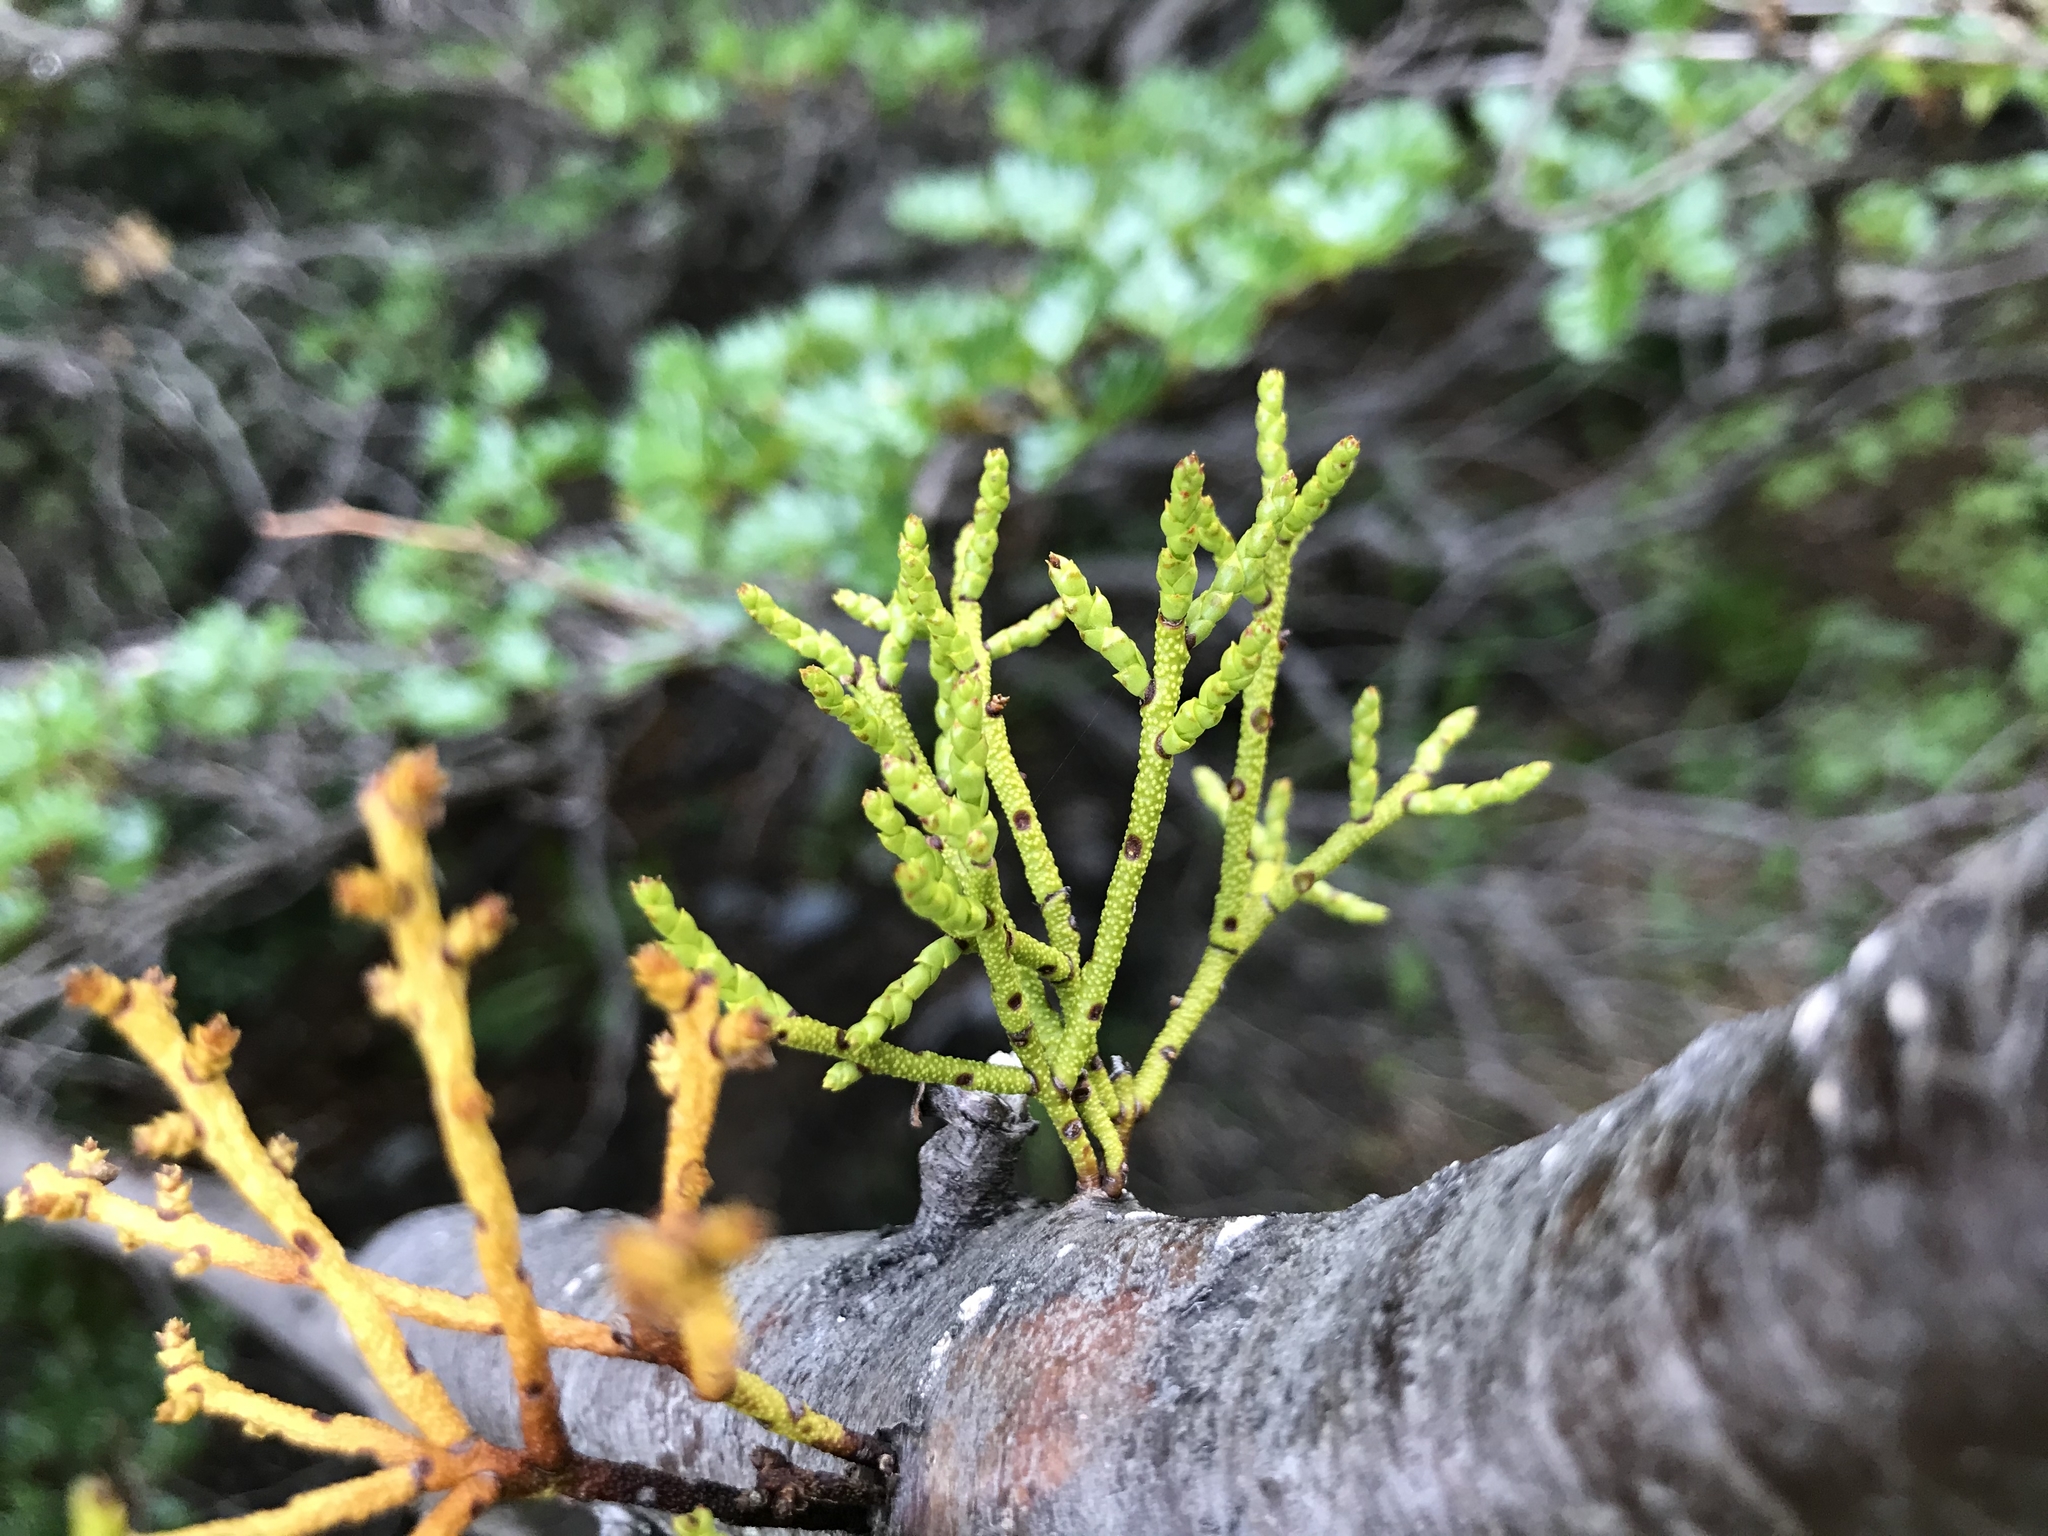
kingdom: Plantae
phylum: Tracheophyta
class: Magnoliopsida
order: Santalales
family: Misodendraceae
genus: Misodendrum
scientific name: Misodendrum punctulatum
